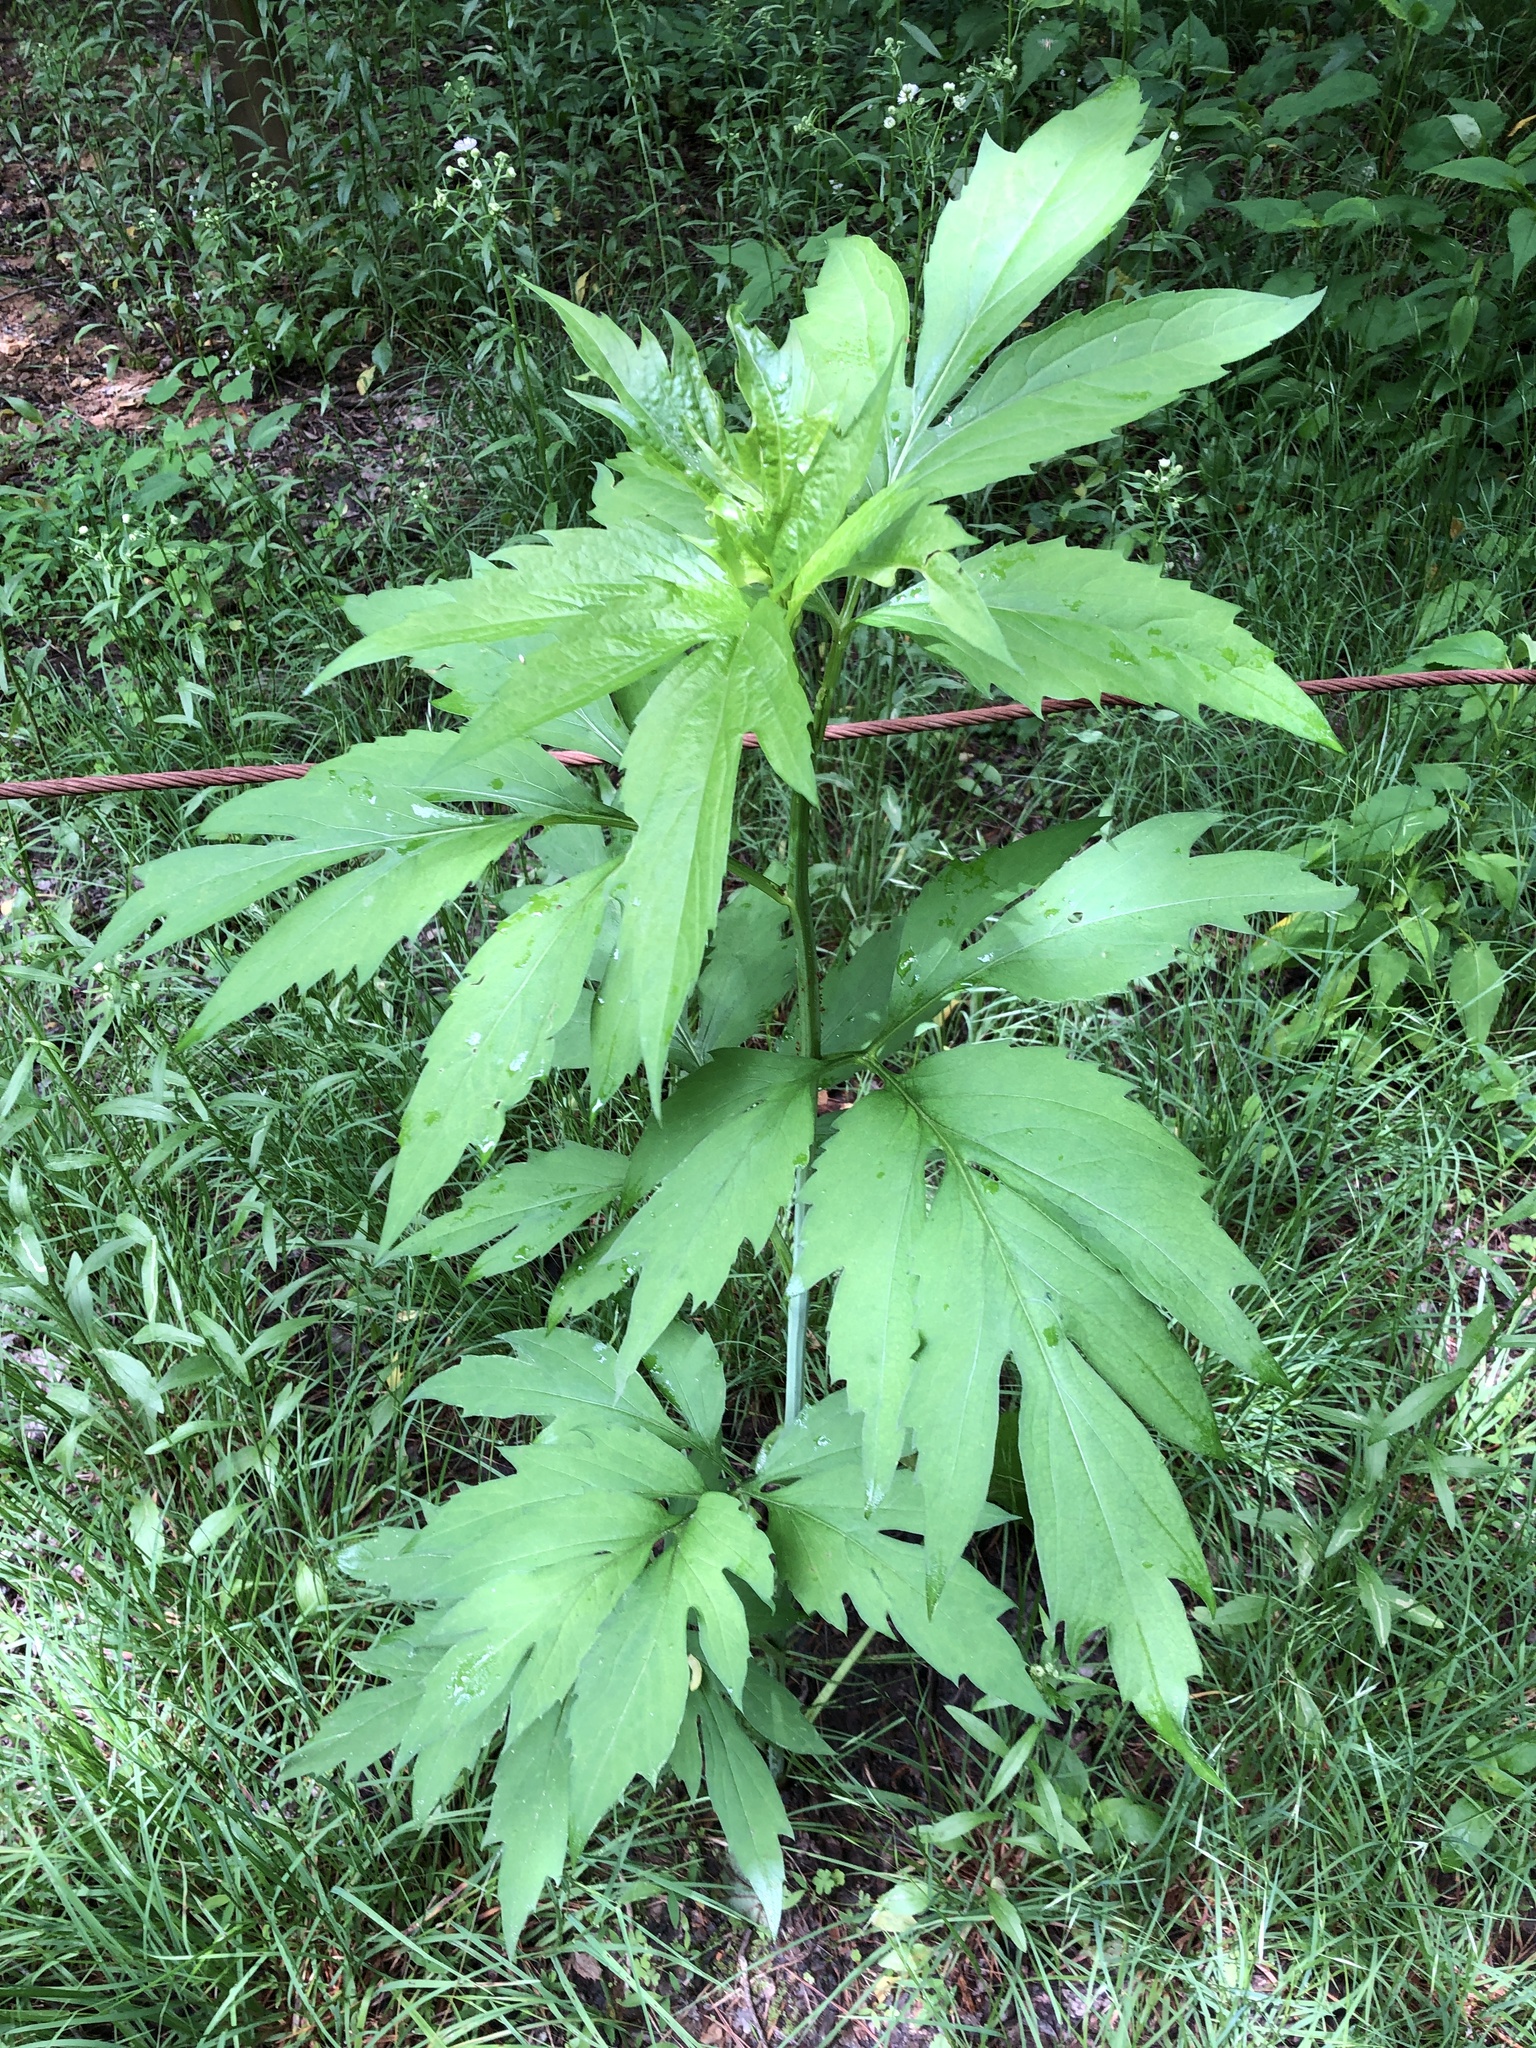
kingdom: Plantae
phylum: Tracheophyta
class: Magnoliopsida
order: Asterales
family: Asteraceae
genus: Rudbeckia
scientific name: Rudbeckia laciniata
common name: Coneflower
